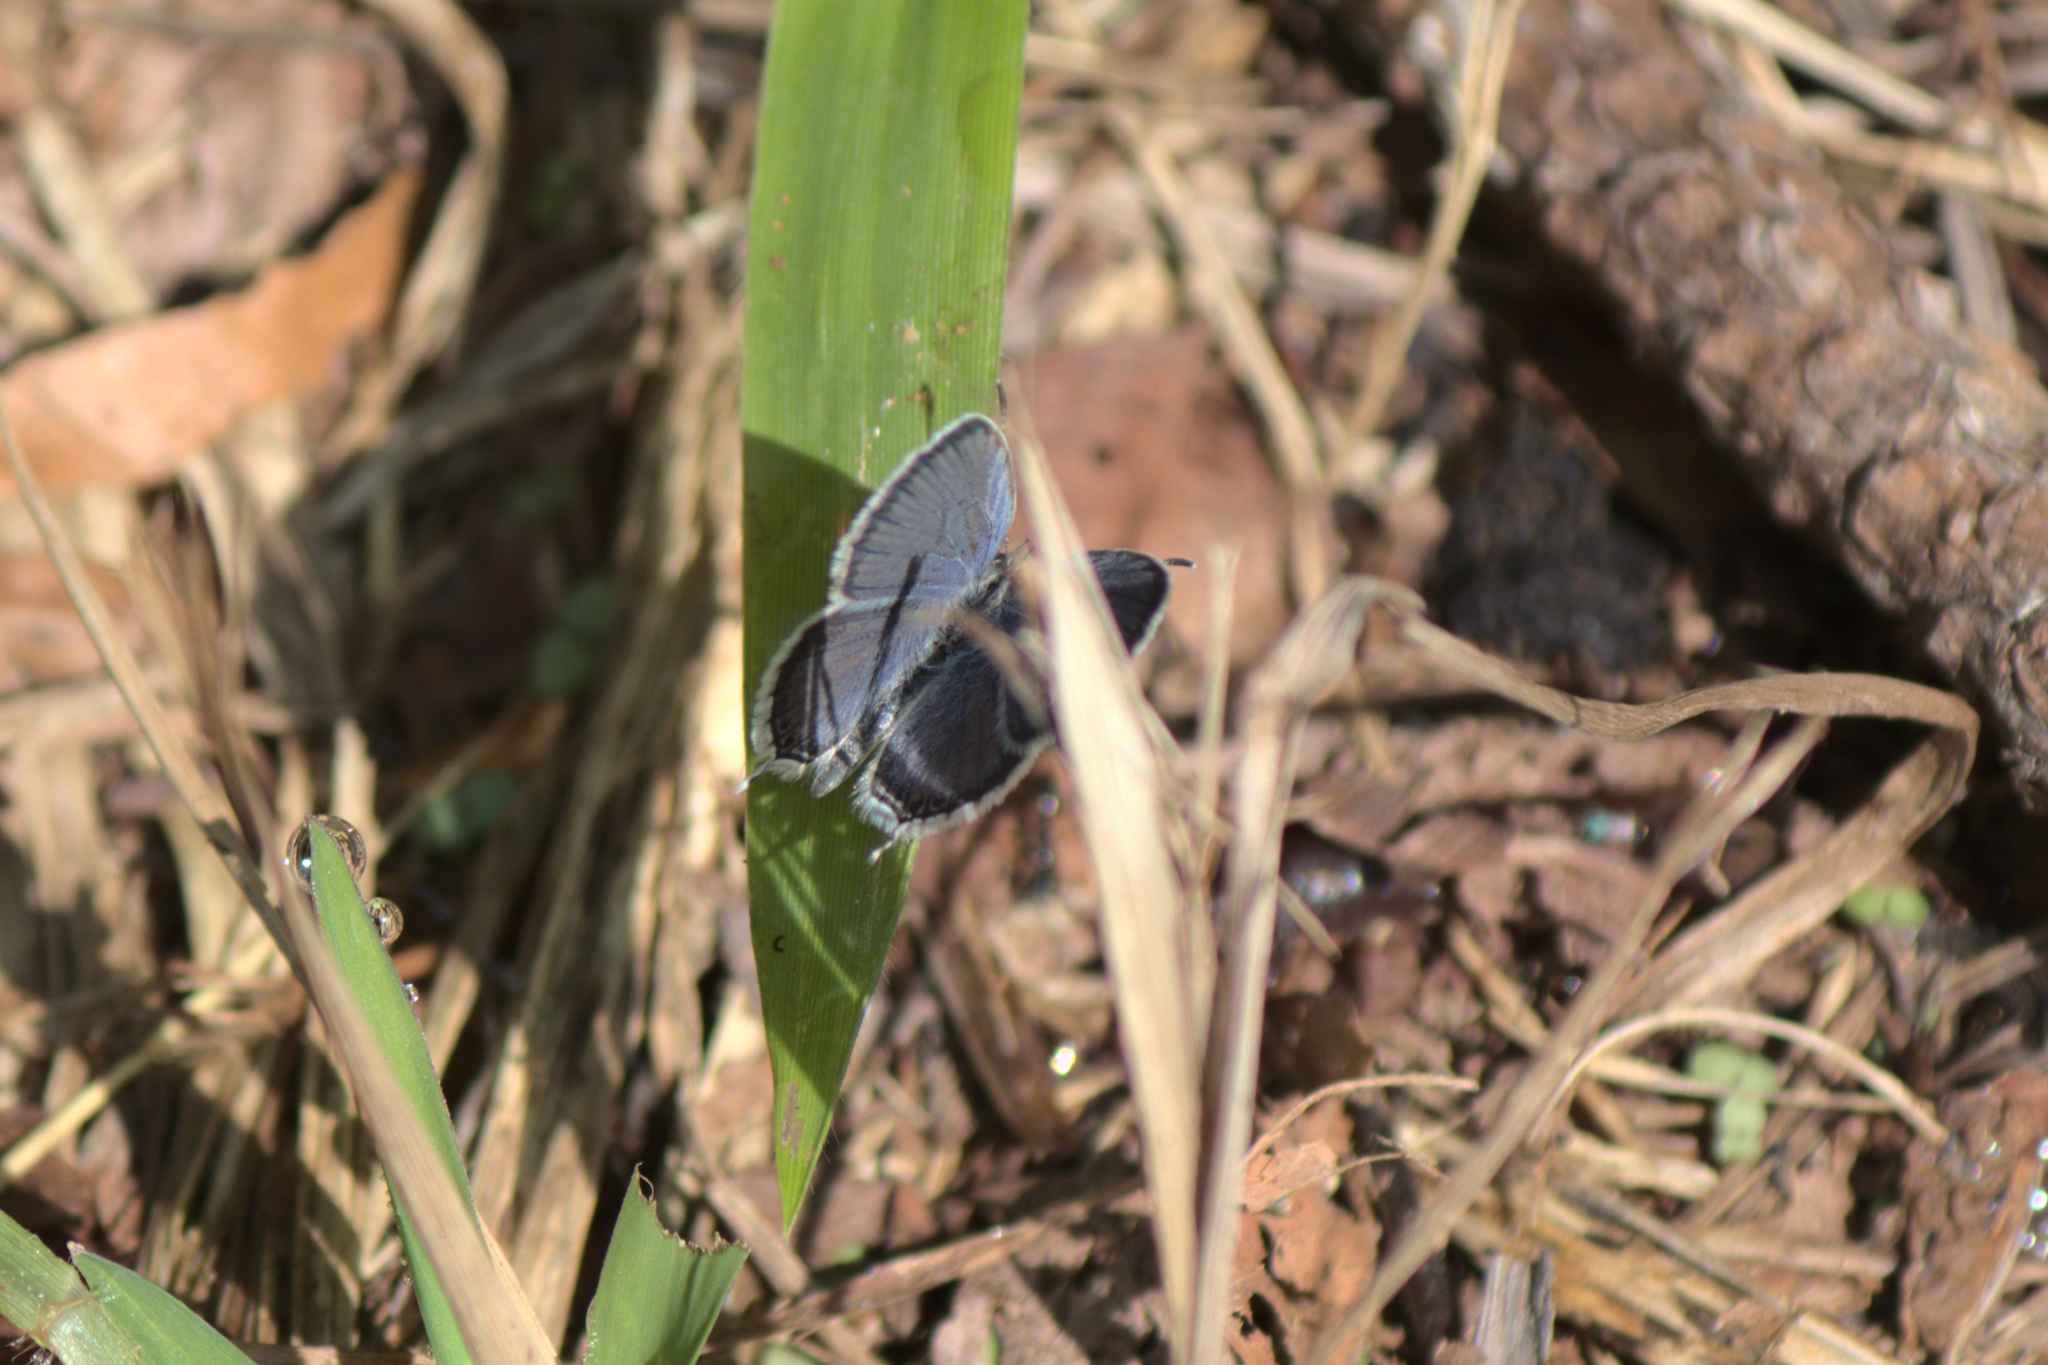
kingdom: Animalia
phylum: Arthropoda
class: Insecta
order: Lepidoptera
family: Lycaenidae
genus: Elkalyce
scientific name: Elkalyce comyntas
